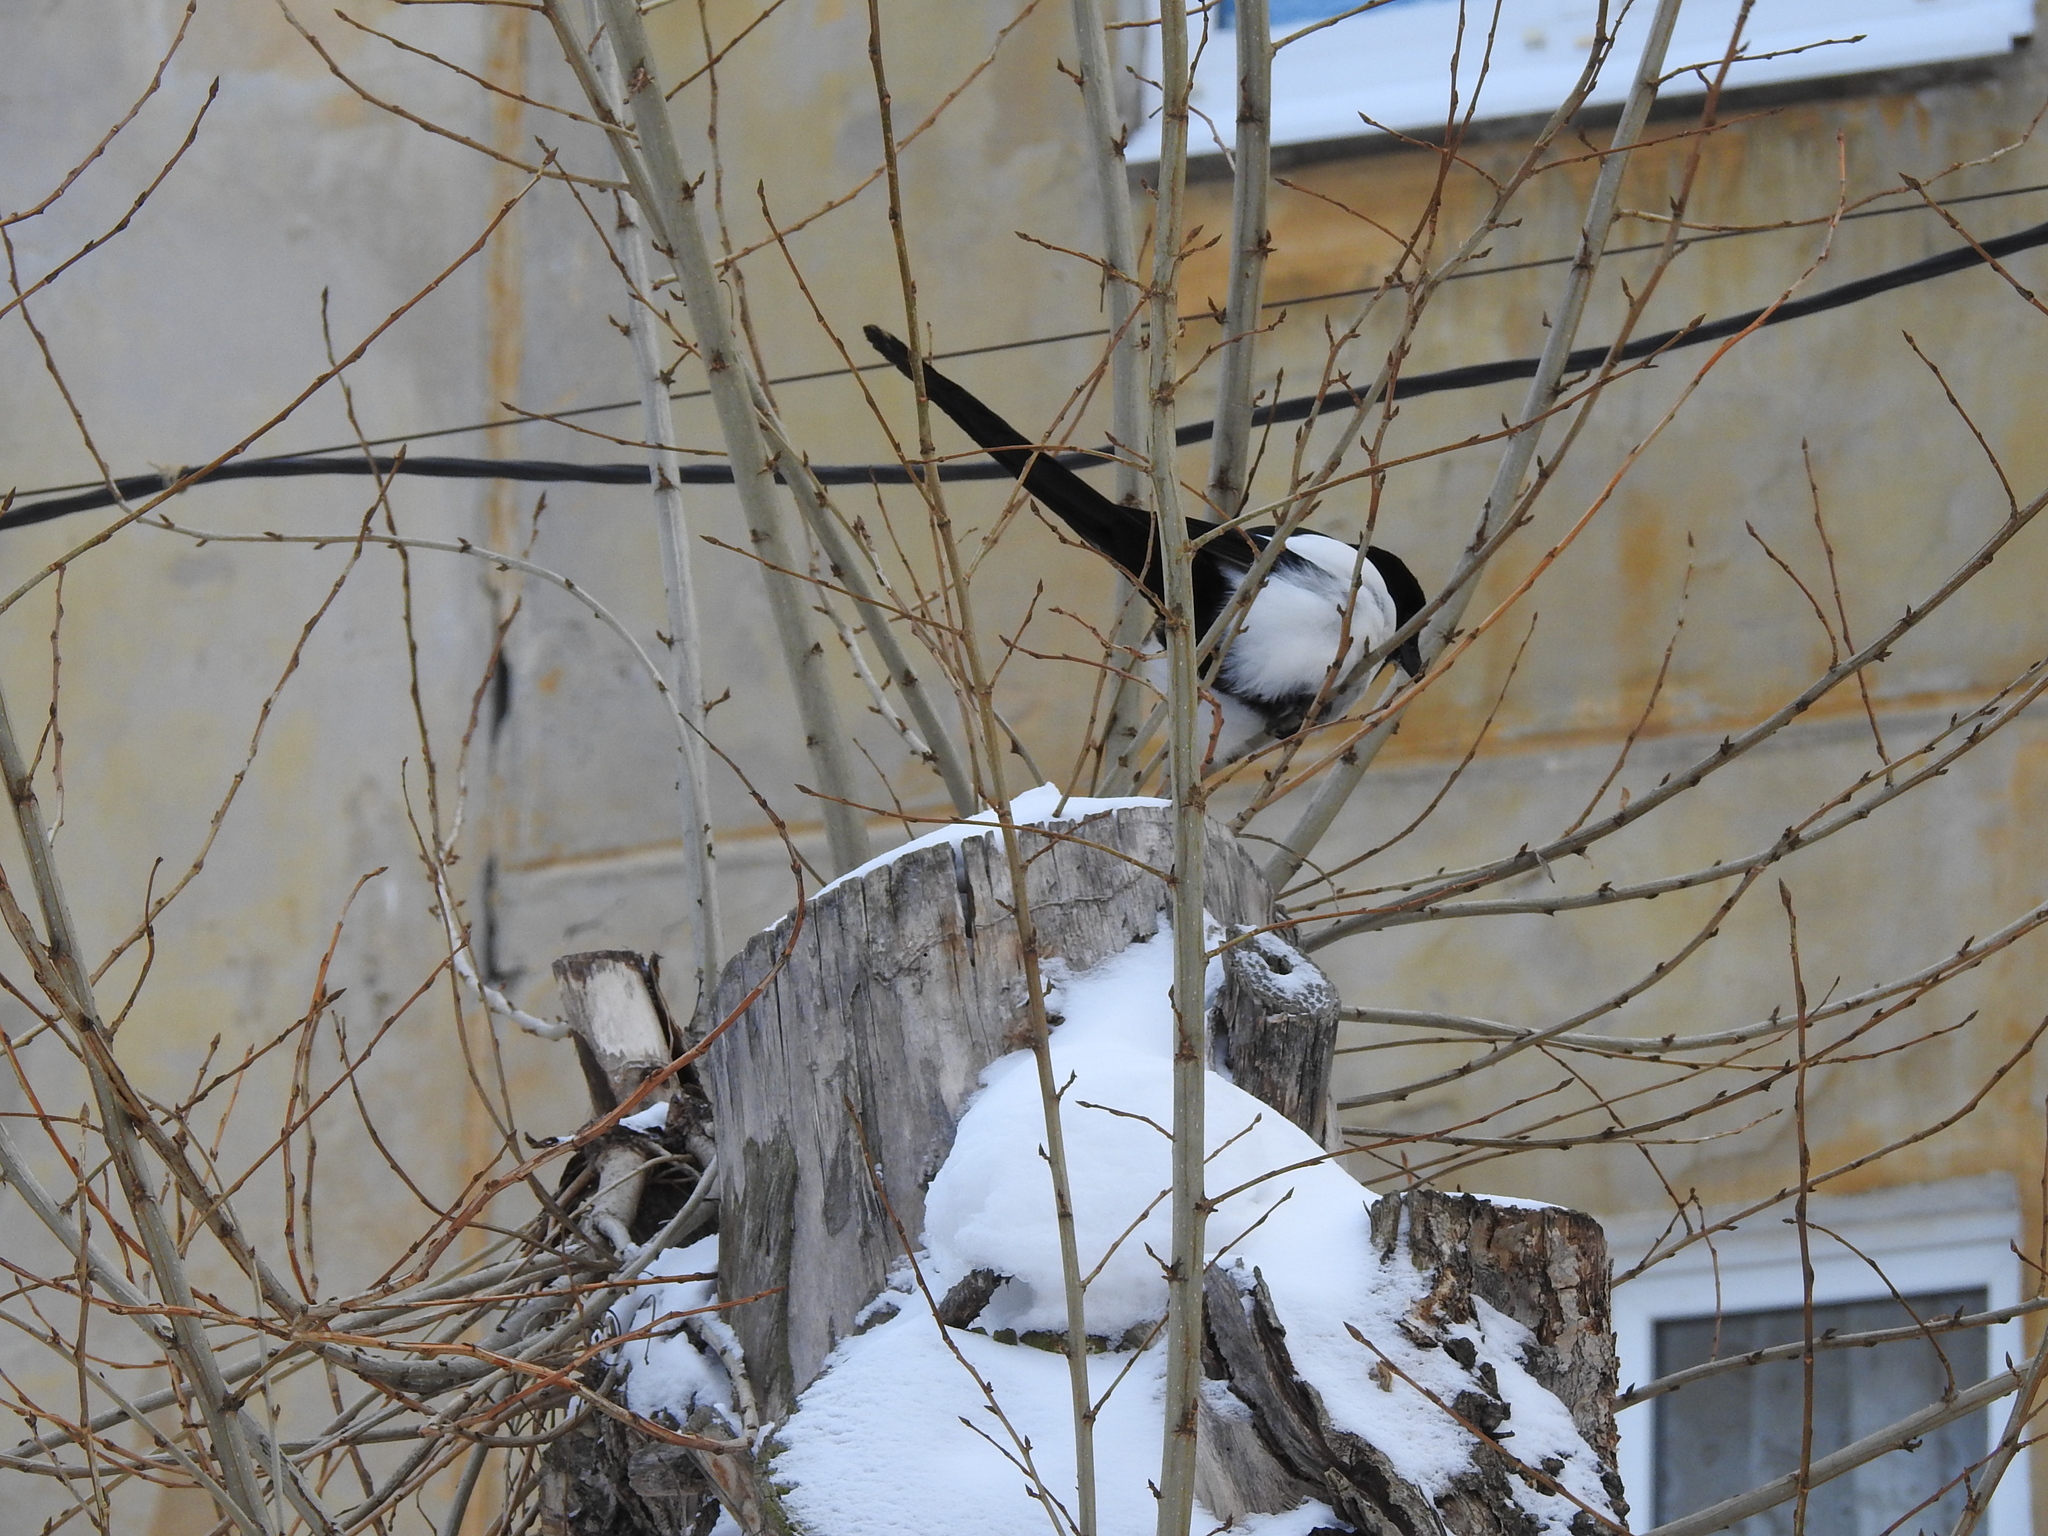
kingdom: Animalia
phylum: Chordata
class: Aves
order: Passeriformes
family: Corvidae
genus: Pica
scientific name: Pica pica
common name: Eurasian magpie
